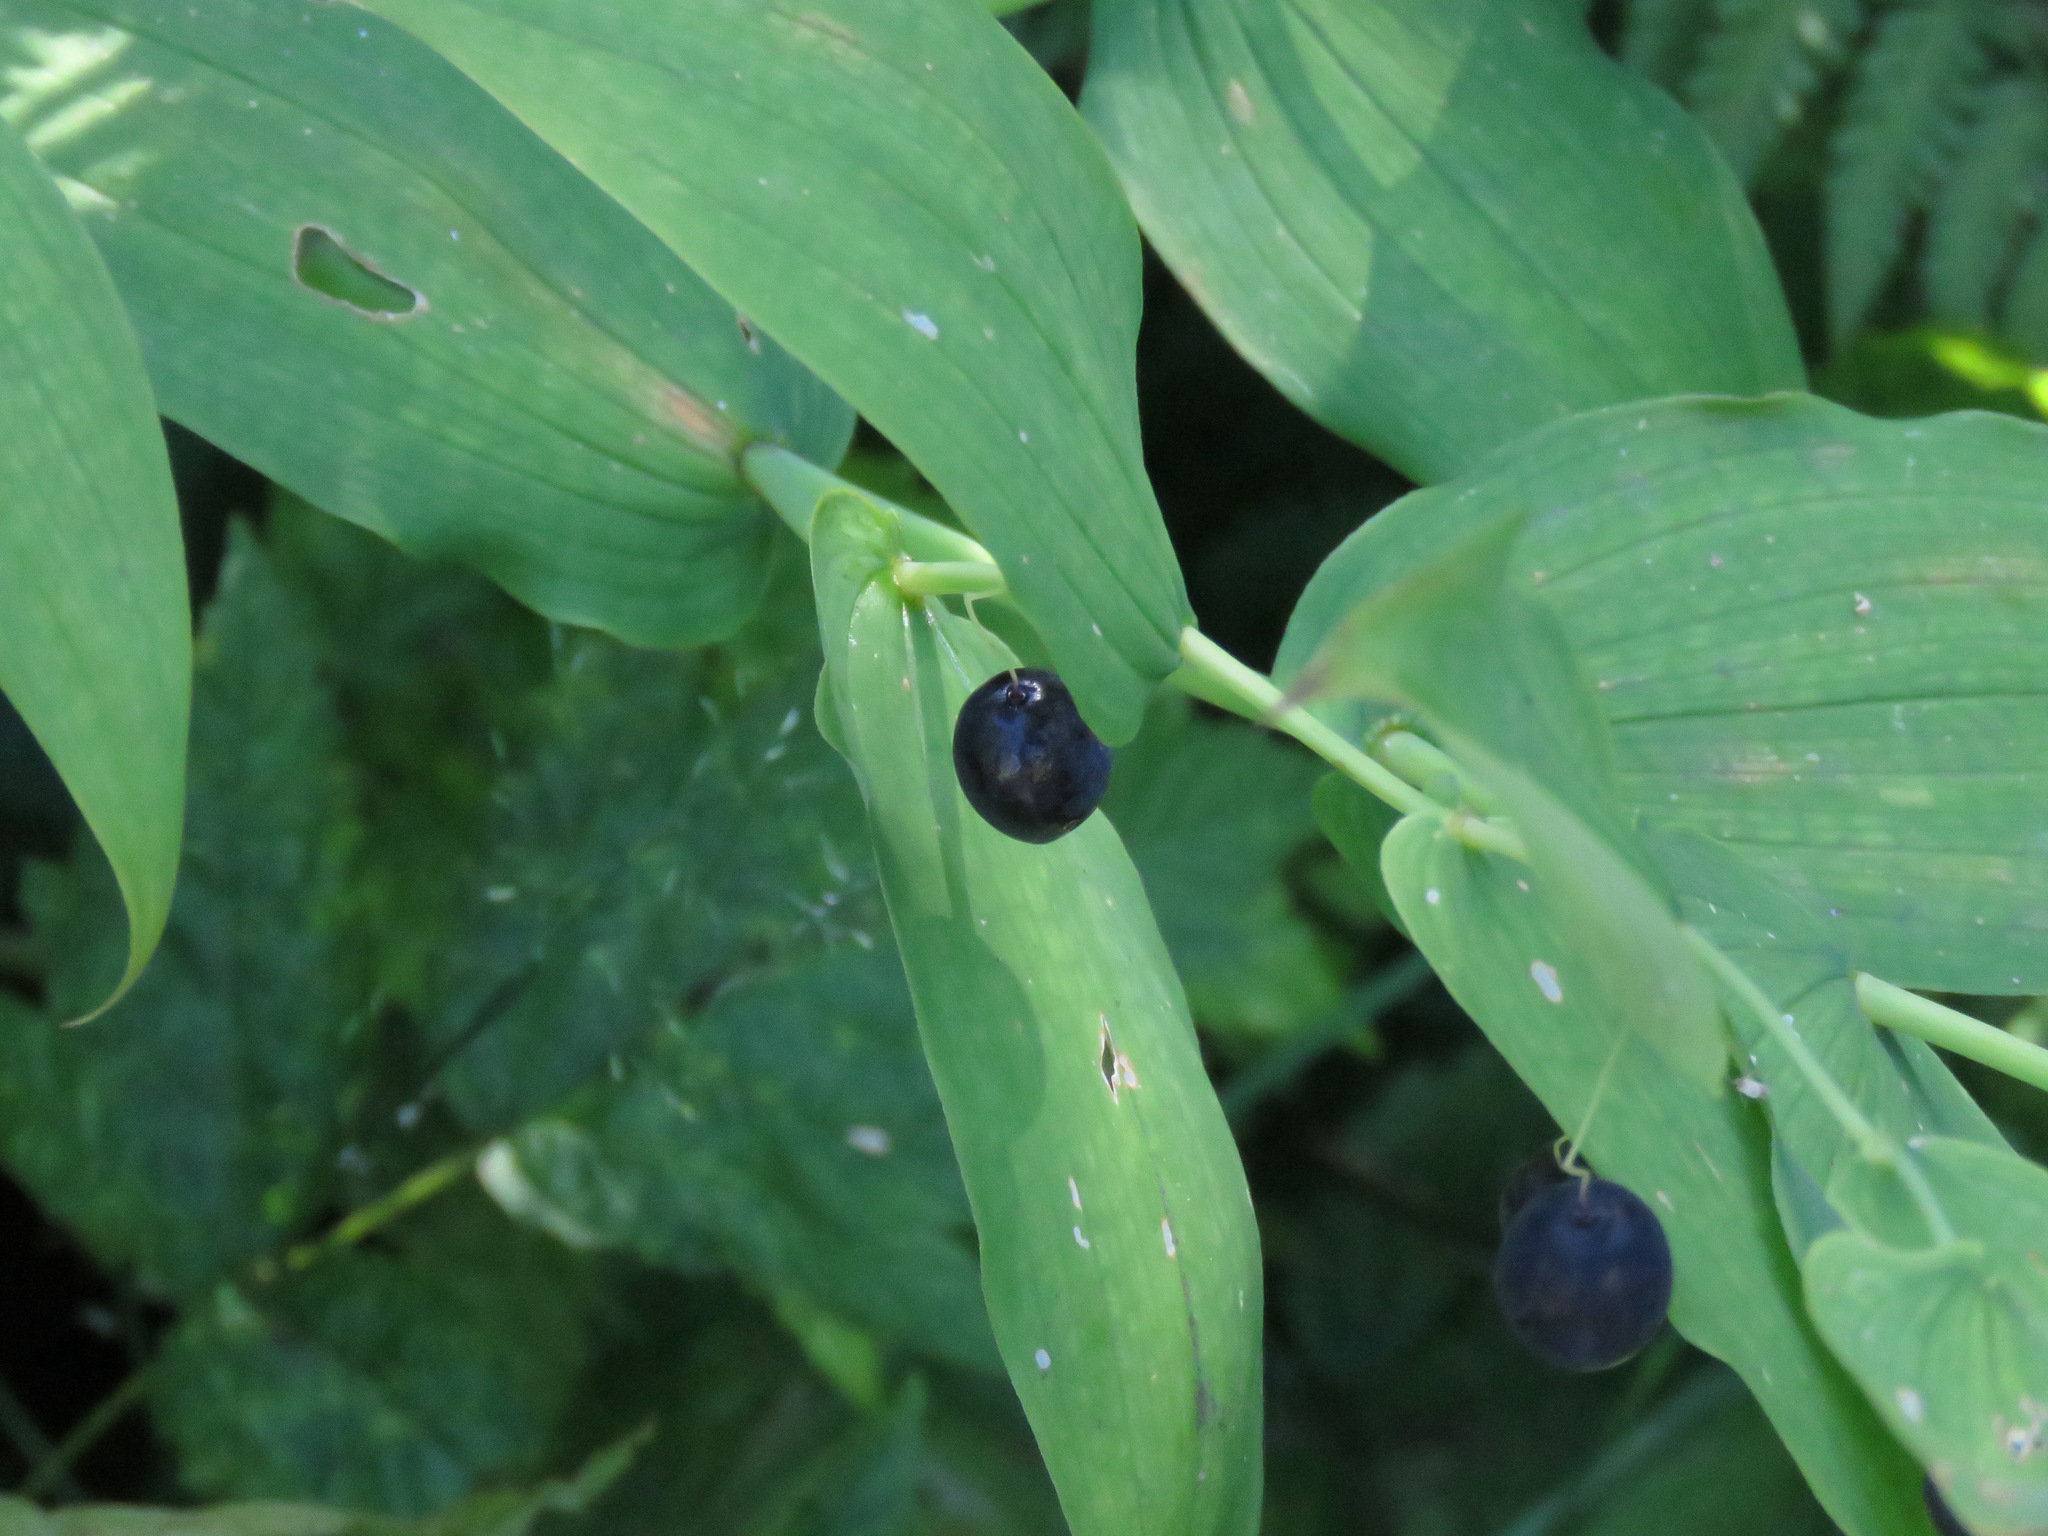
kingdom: Plantae
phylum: Tracheophyta
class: Liliopsida
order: Liliales
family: Liliaceae
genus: Streptopus
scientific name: Streptopus amplexifolius
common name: Clasp twisted stalk
